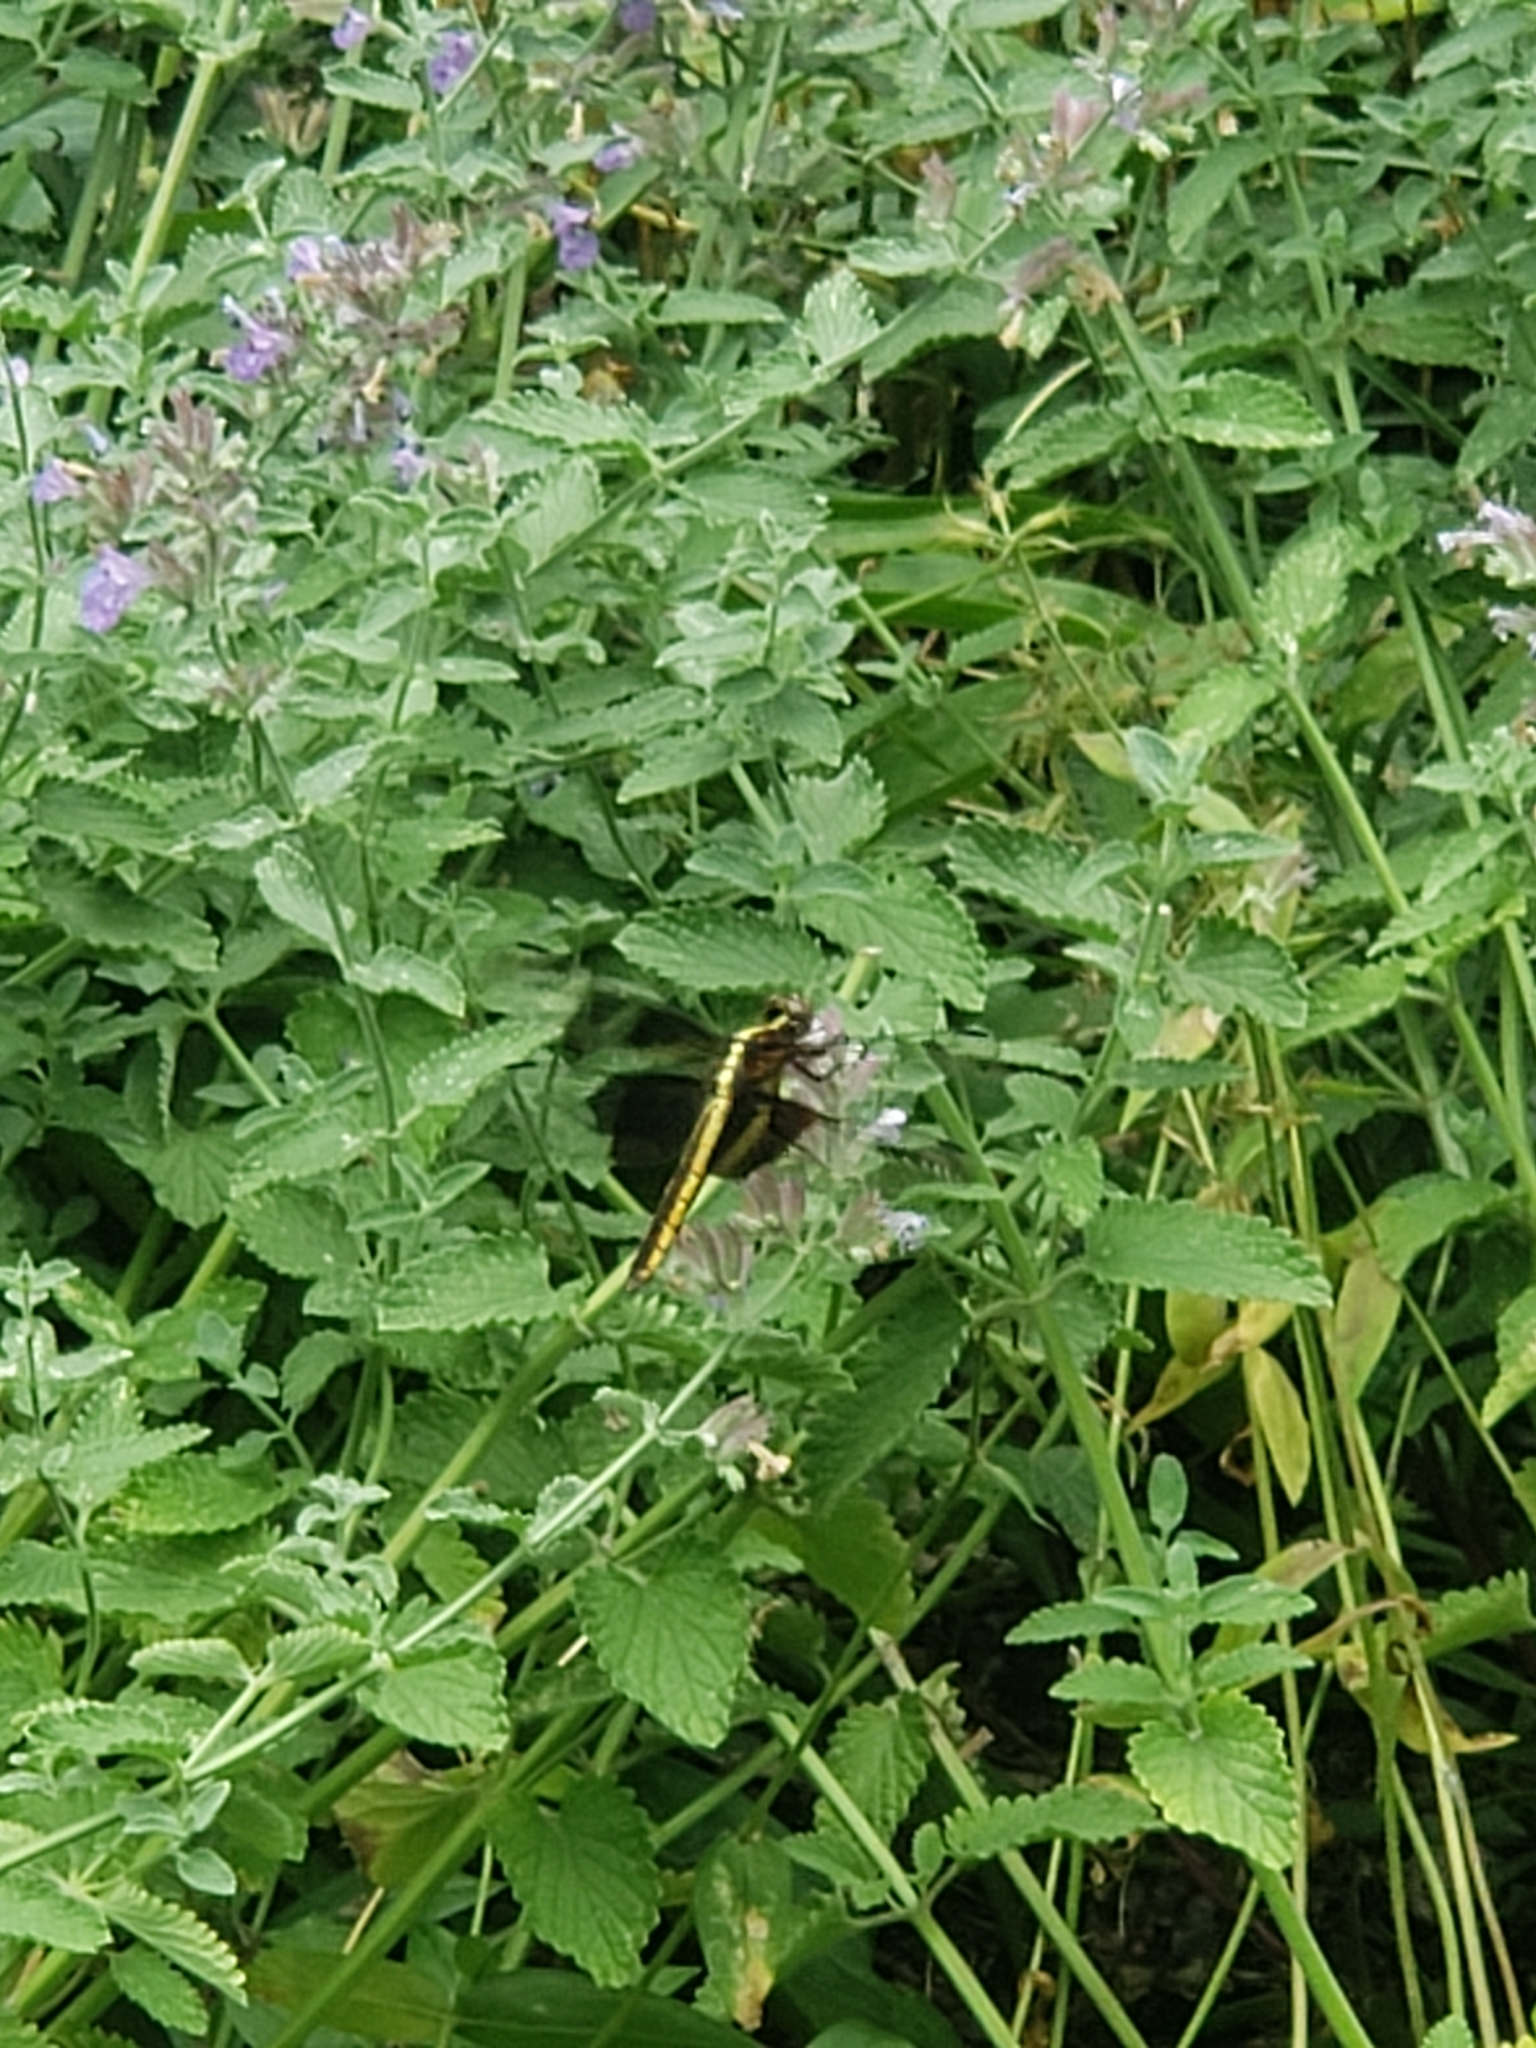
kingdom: Animalia
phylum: Arthropoda
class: Insecta
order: Odonata
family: Libellulidae
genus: Libellula
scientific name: Libellula luctuosa
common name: Widow skimmer
